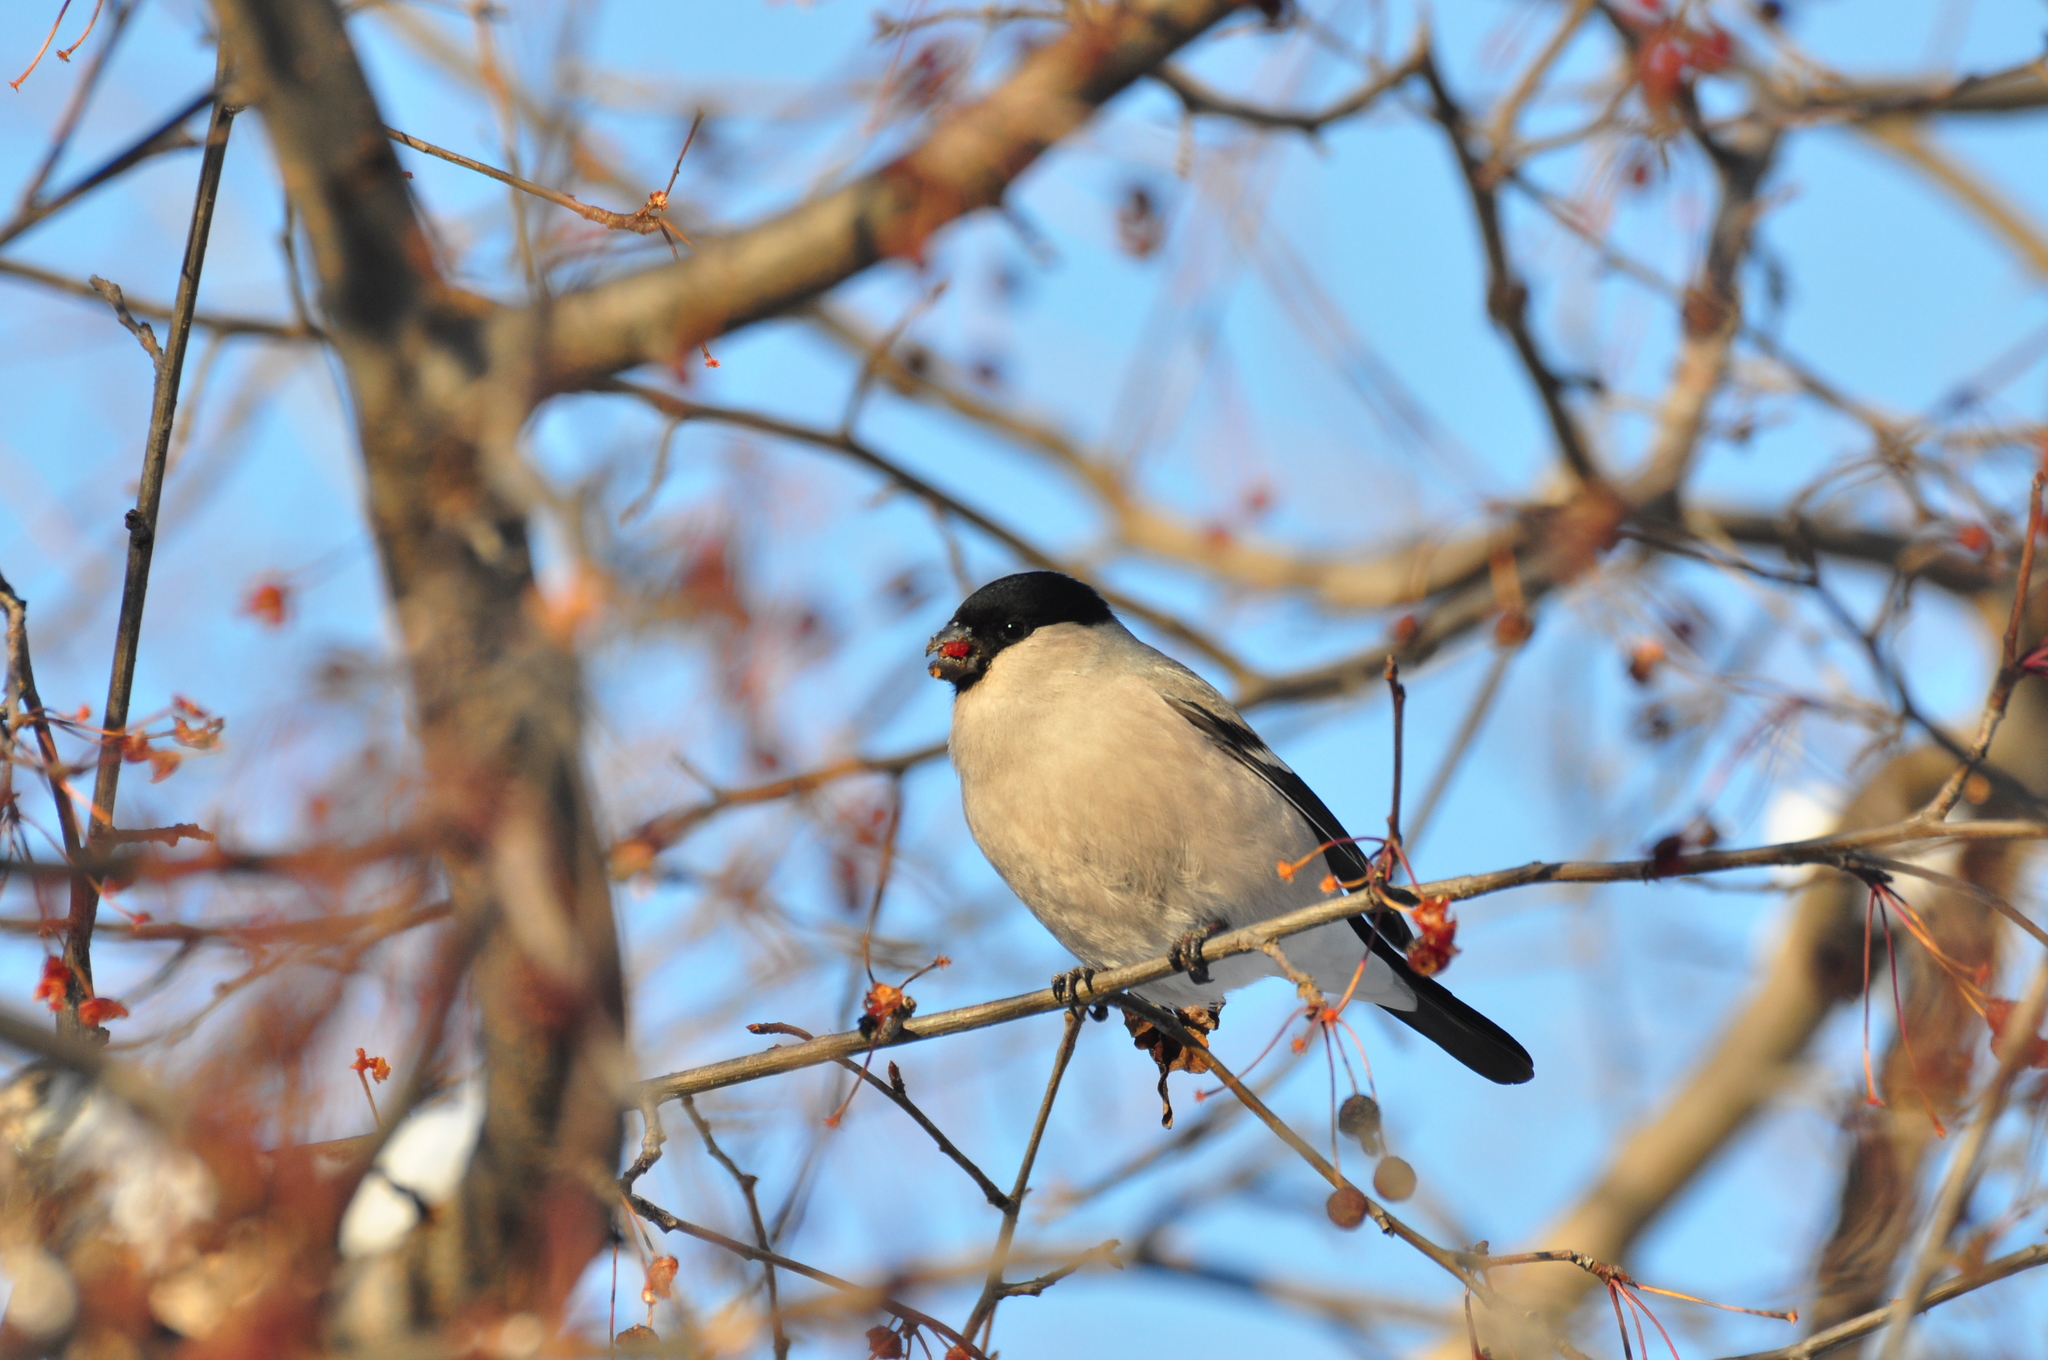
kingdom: Animalia
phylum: Chordata
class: Aves
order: Passeriformes
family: Fringillidae
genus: Pyrrhula
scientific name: Pyrrhula pyrrhula
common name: Eurasian bullfinch
